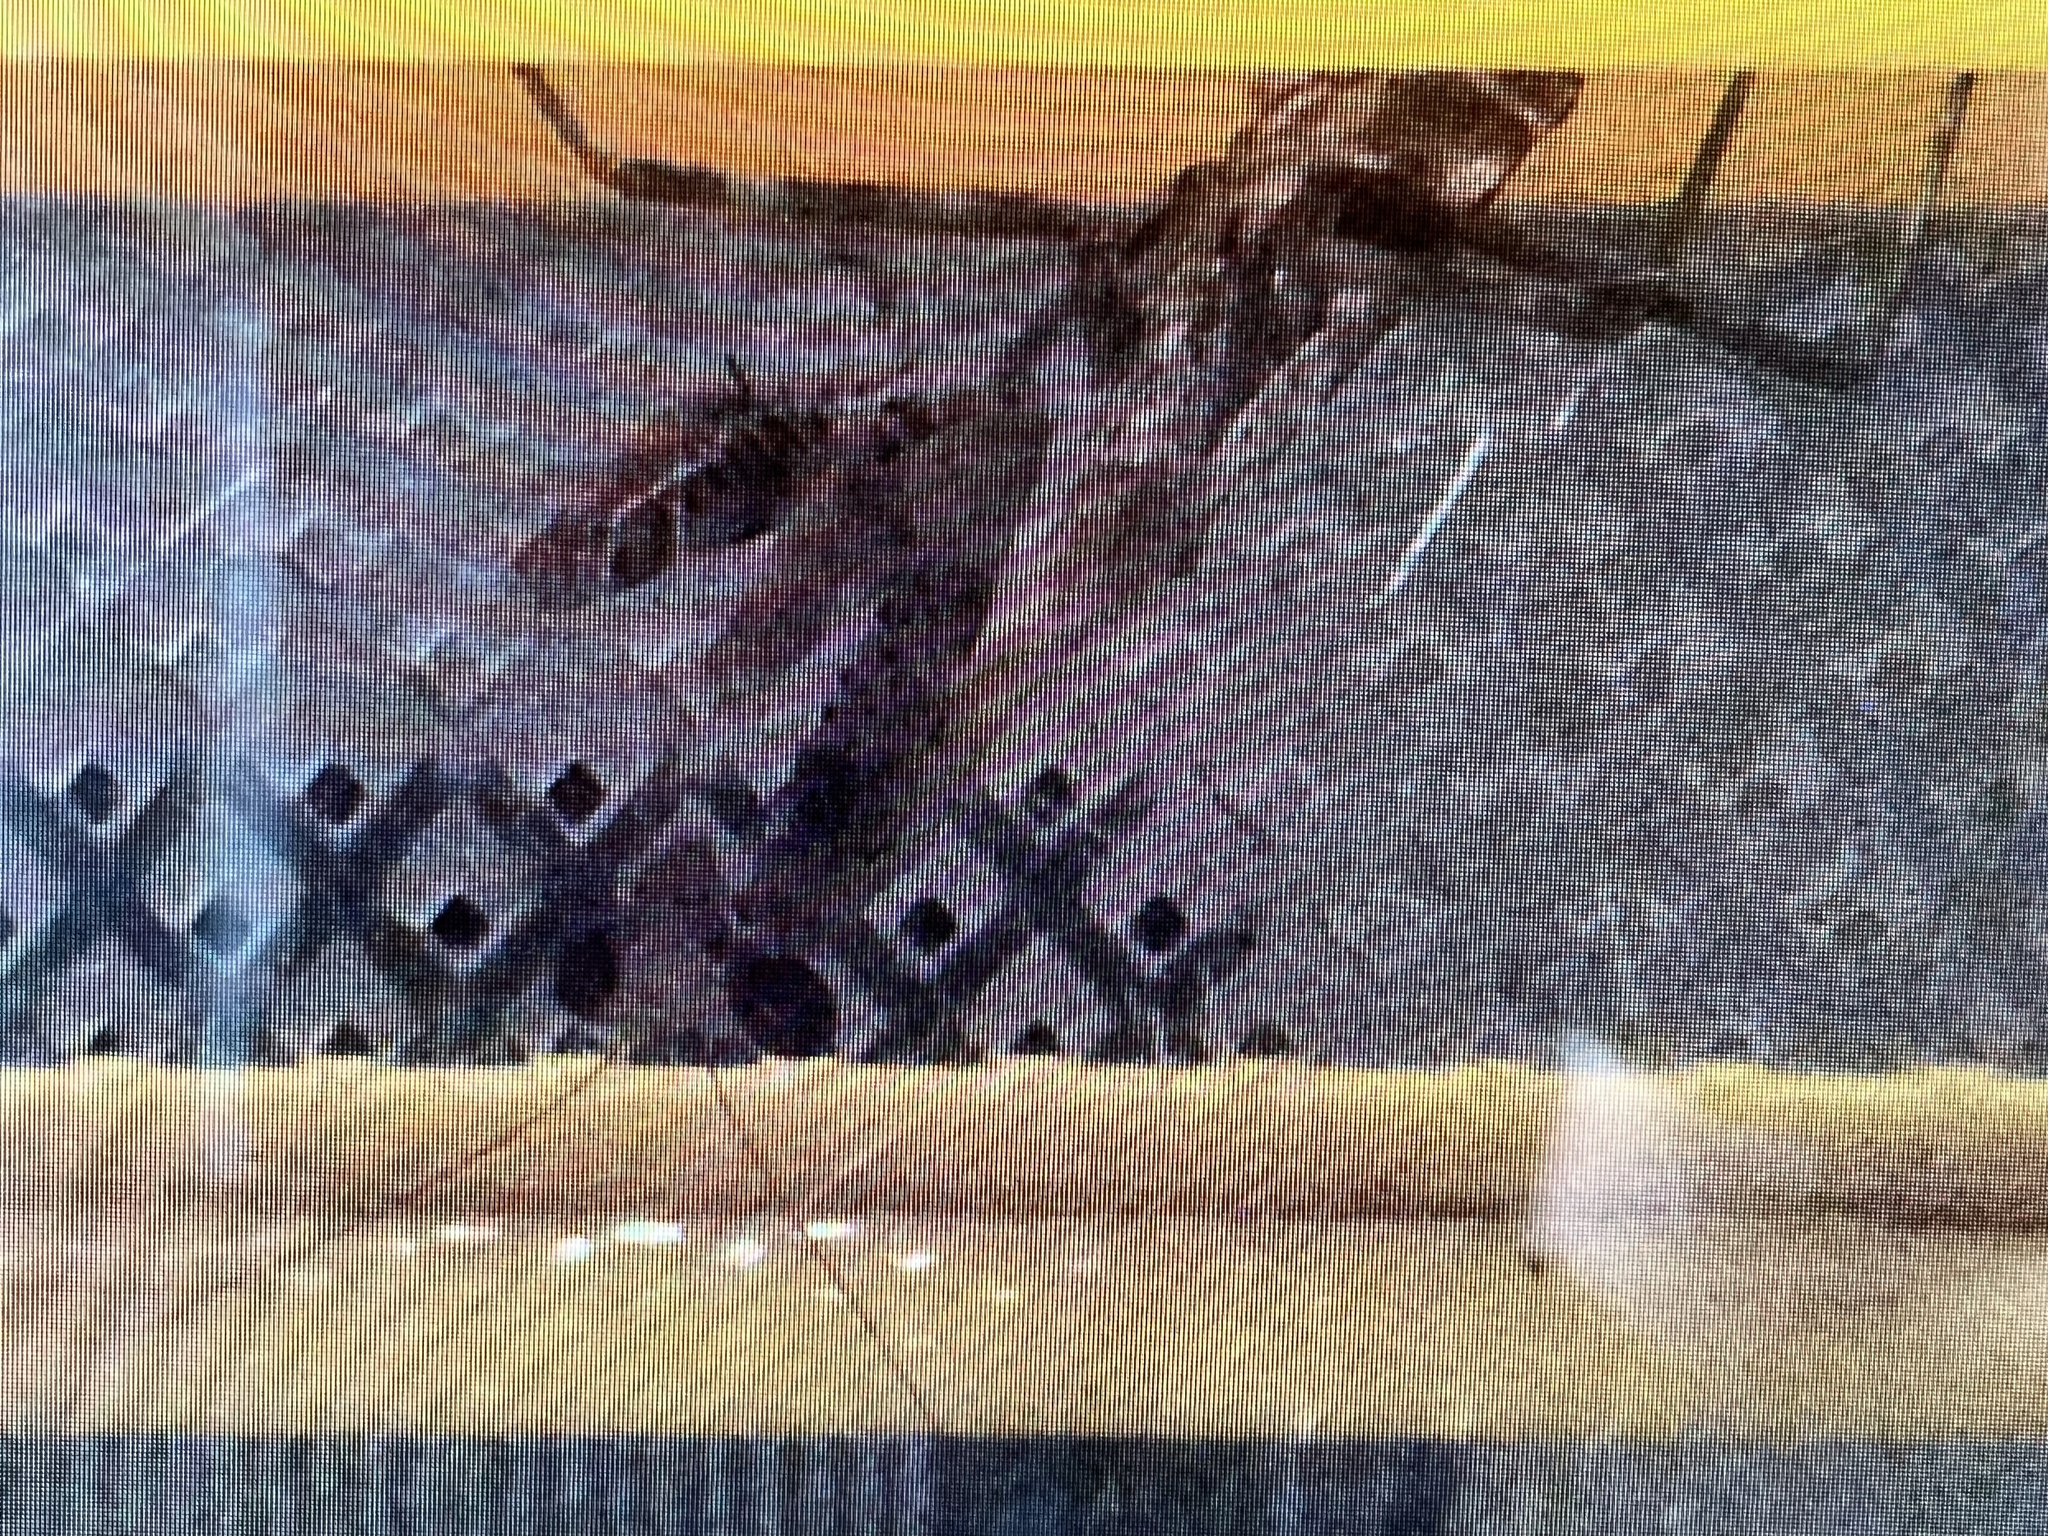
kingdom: Animalia
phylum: Arthropoda
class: Insecta
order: Mantodea
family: Mantidae
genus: Stagmomantis
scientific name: Stagmomantis carolina
